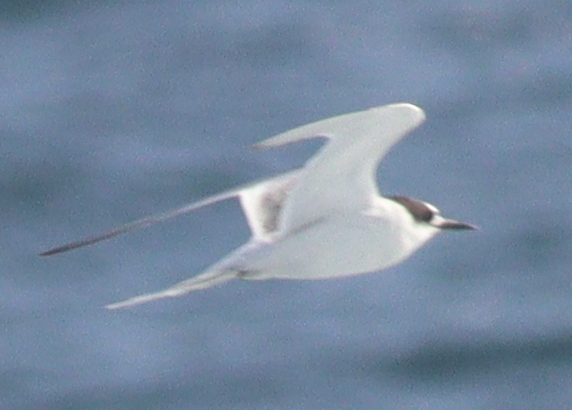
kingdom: Animalia
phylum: Chordata
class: Aves
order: Charadriiformes
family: Laridae
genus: Sterna
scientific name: Sterna paradisaea
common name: Arctic tern
